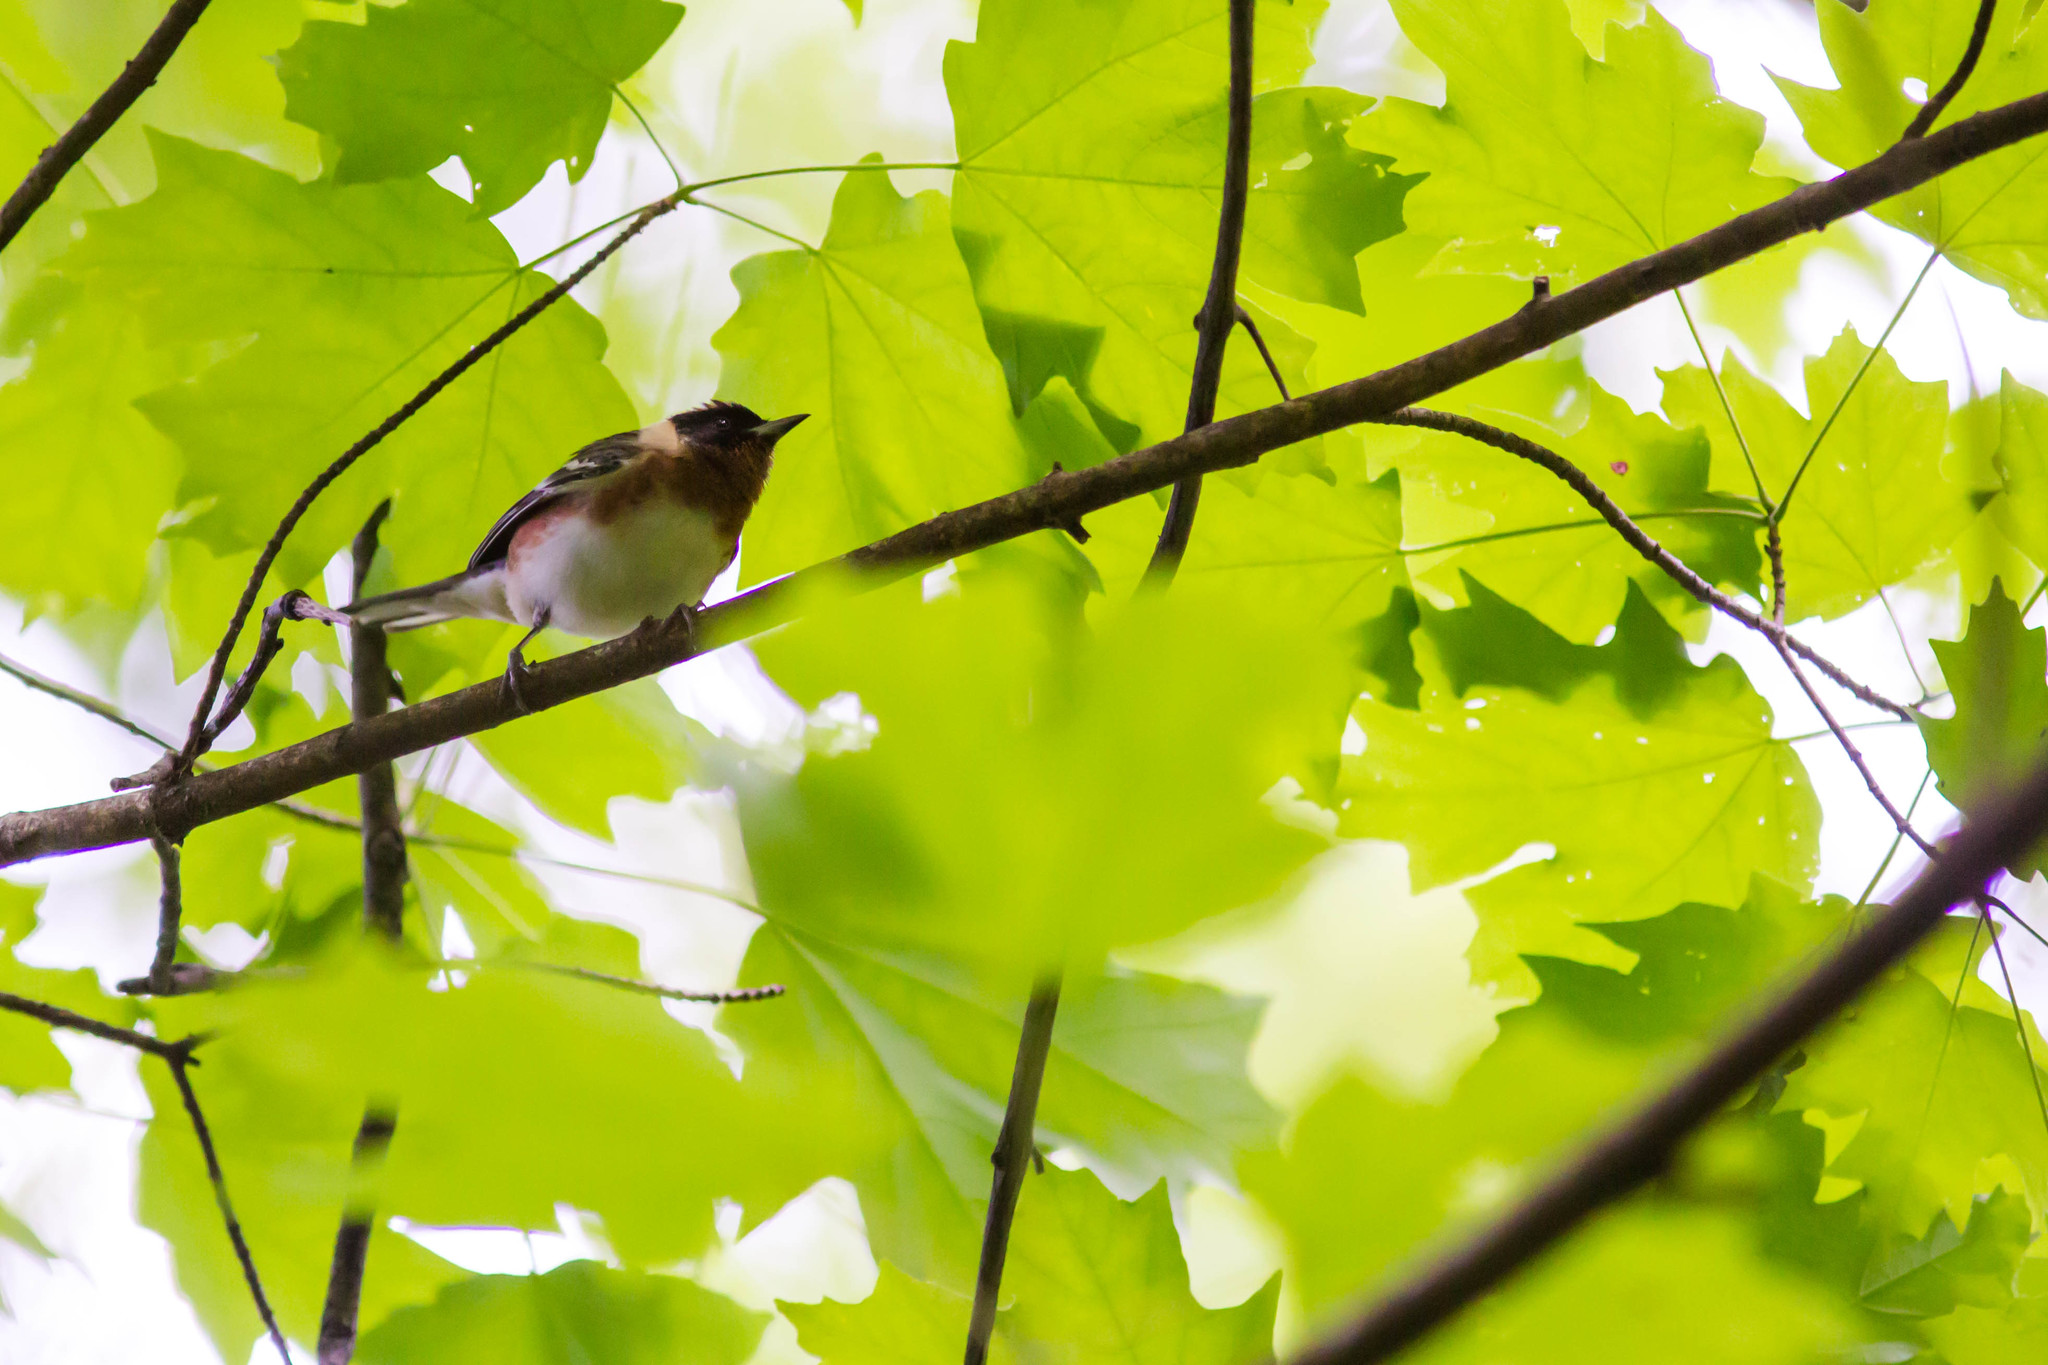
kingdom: Animalia
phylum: Chordata
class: Aves
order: Passeriformes
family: Parulidae
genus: Setophaga
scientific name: Setophaga castanea
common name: Bay-breasted warbler
